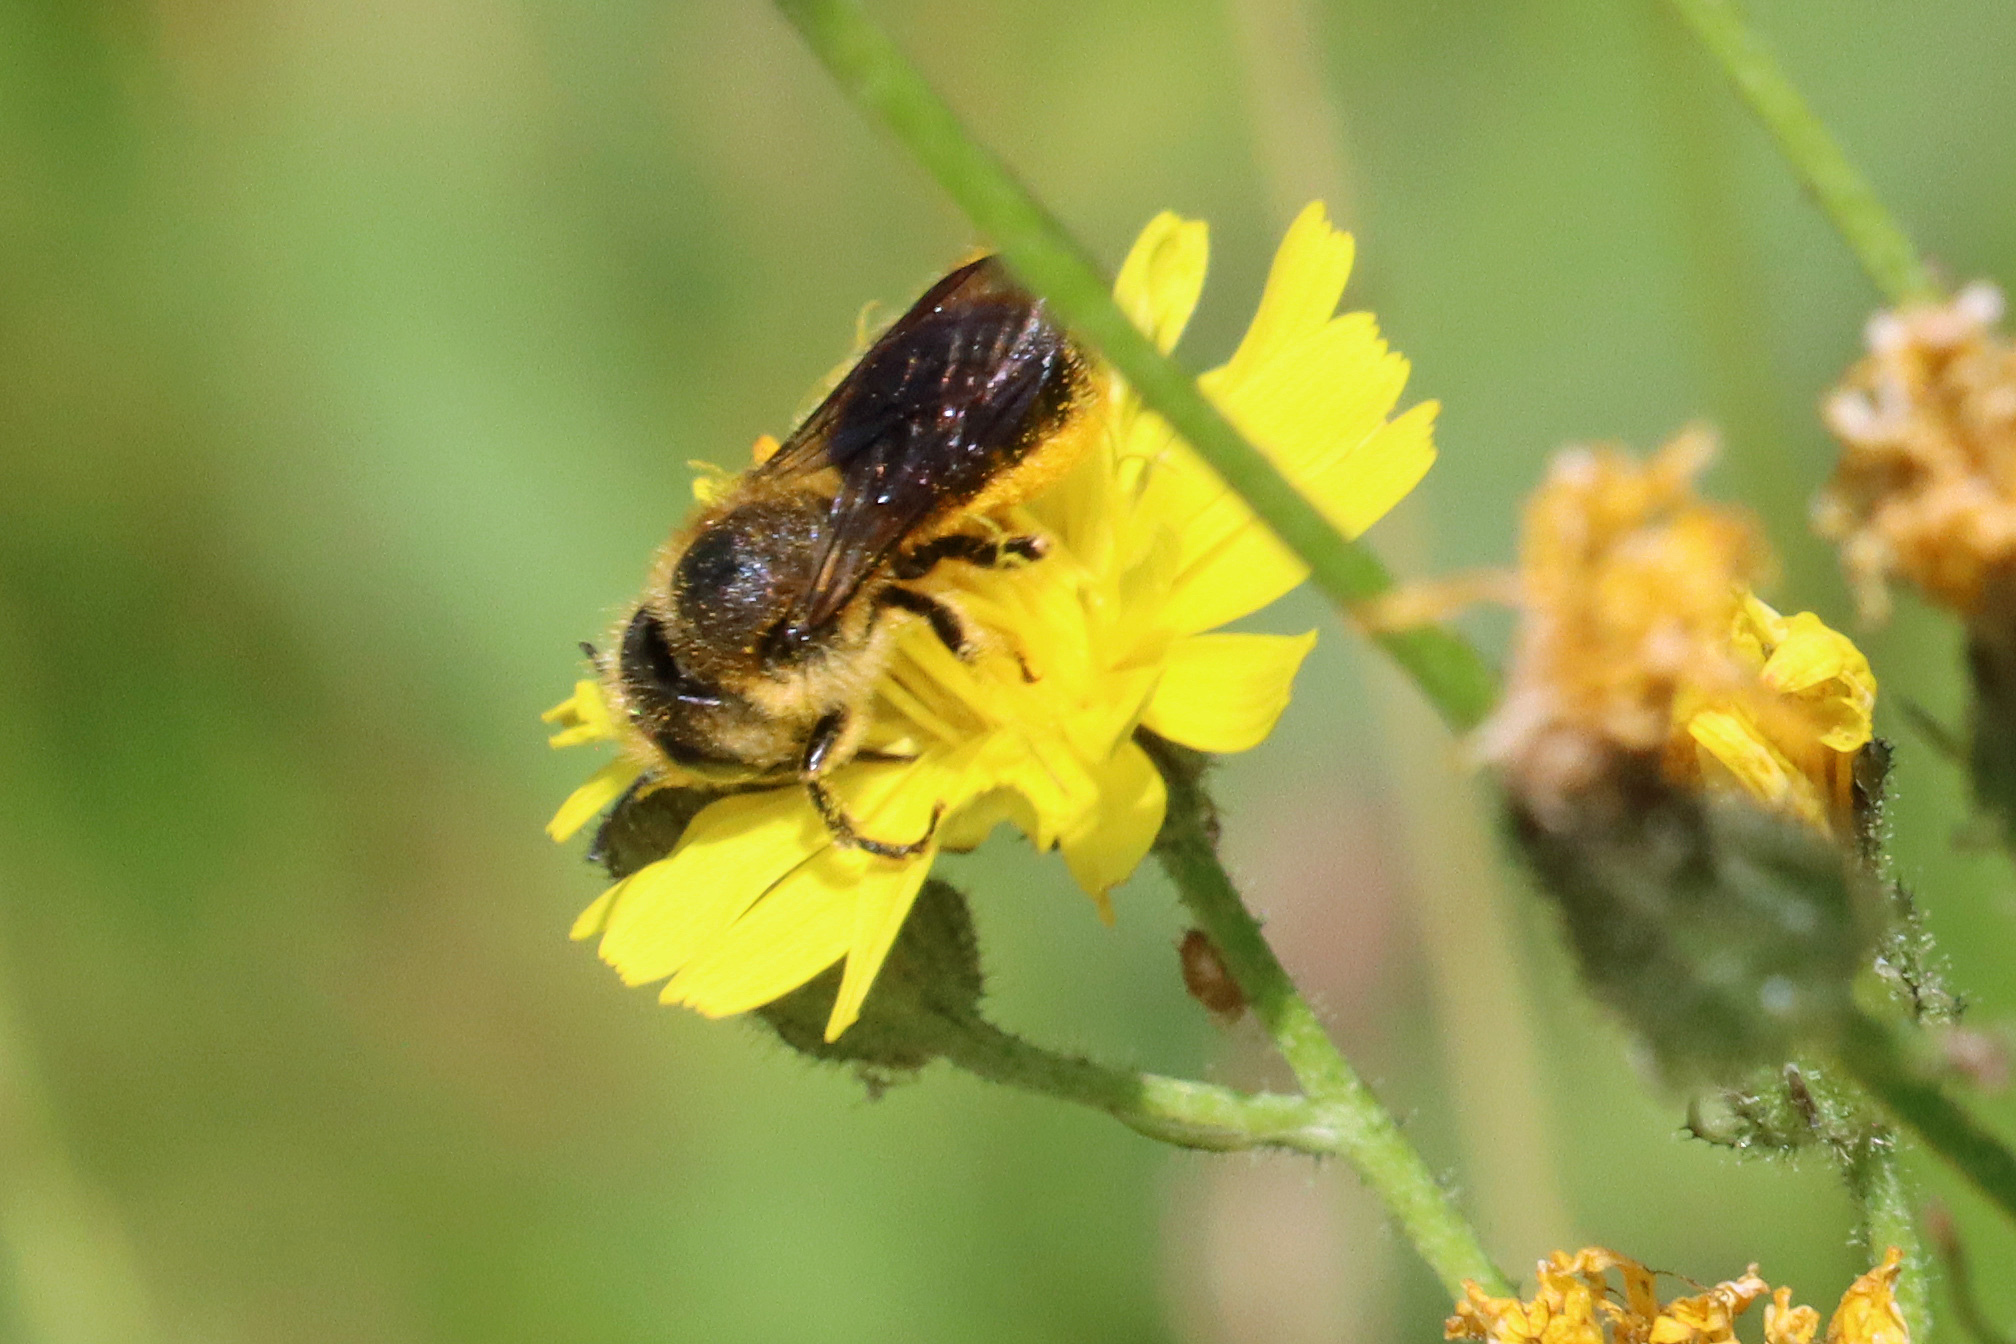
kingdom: Animalia
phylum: Arthropoda
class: Insecta
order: Hymenoptera
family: Megachilidae
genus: Osmia
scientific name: Osmia leaiana
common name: Orange-vented mason bee
